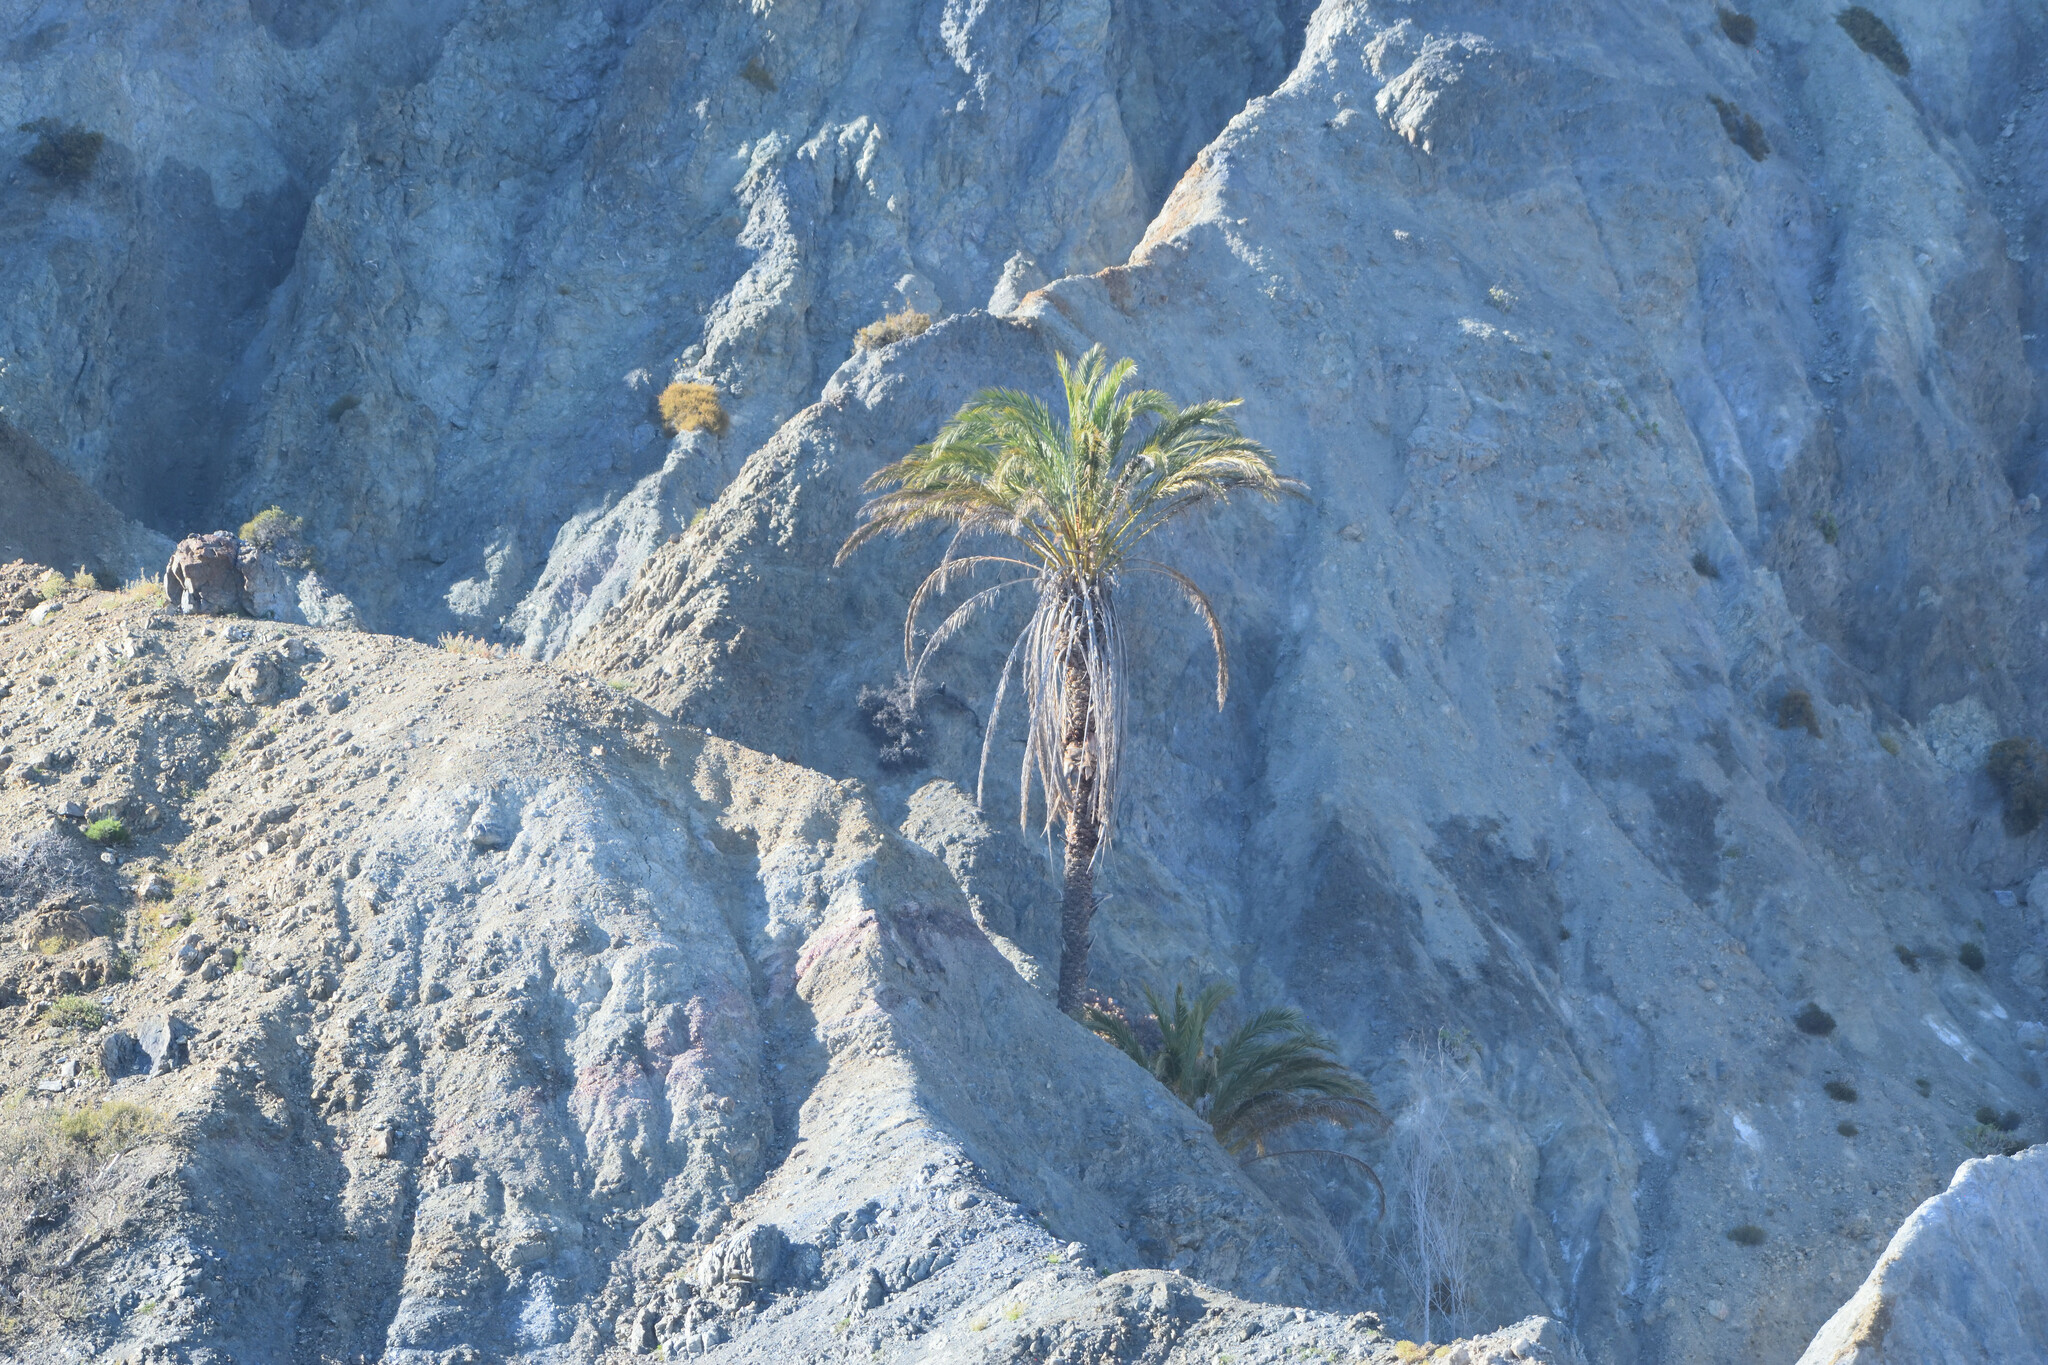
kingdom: Plantae
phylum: Tracheophyta
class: Liliopsida
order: Arecales
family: Arecaceae
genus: Phoenix
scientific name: Phoenix dactylifera
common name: Date palm
